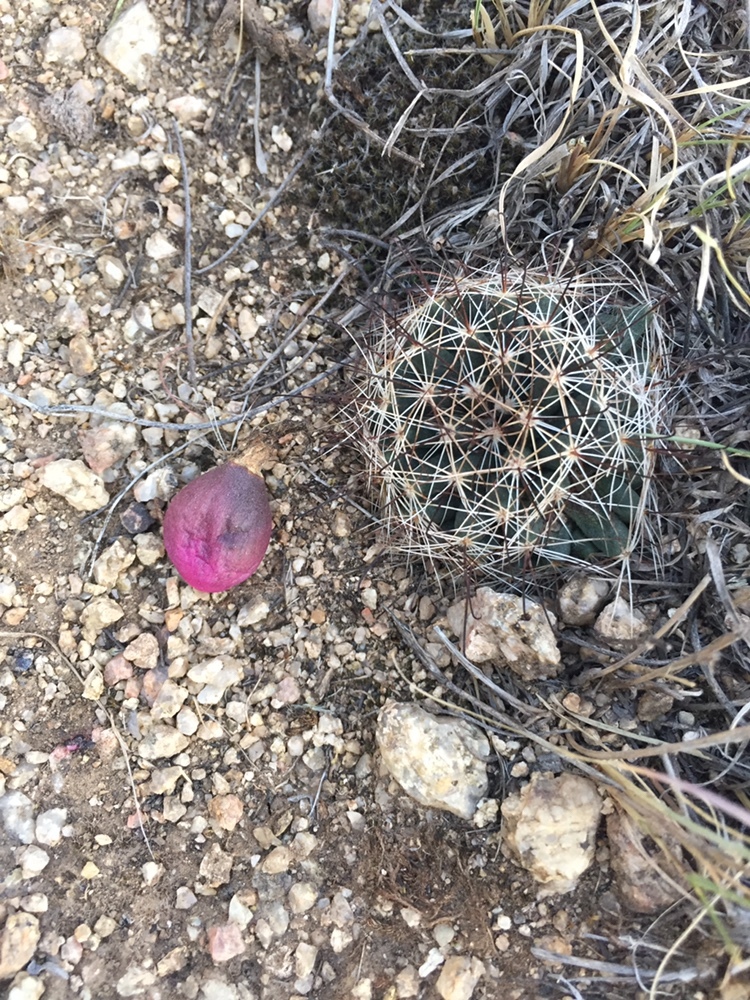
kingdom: Plantae
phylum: Tracheophyta
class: Magnoliopsida
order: Caryophyllales
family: Cactaceae
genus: Pelecyphora
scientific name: Pelecyphora vivipara
